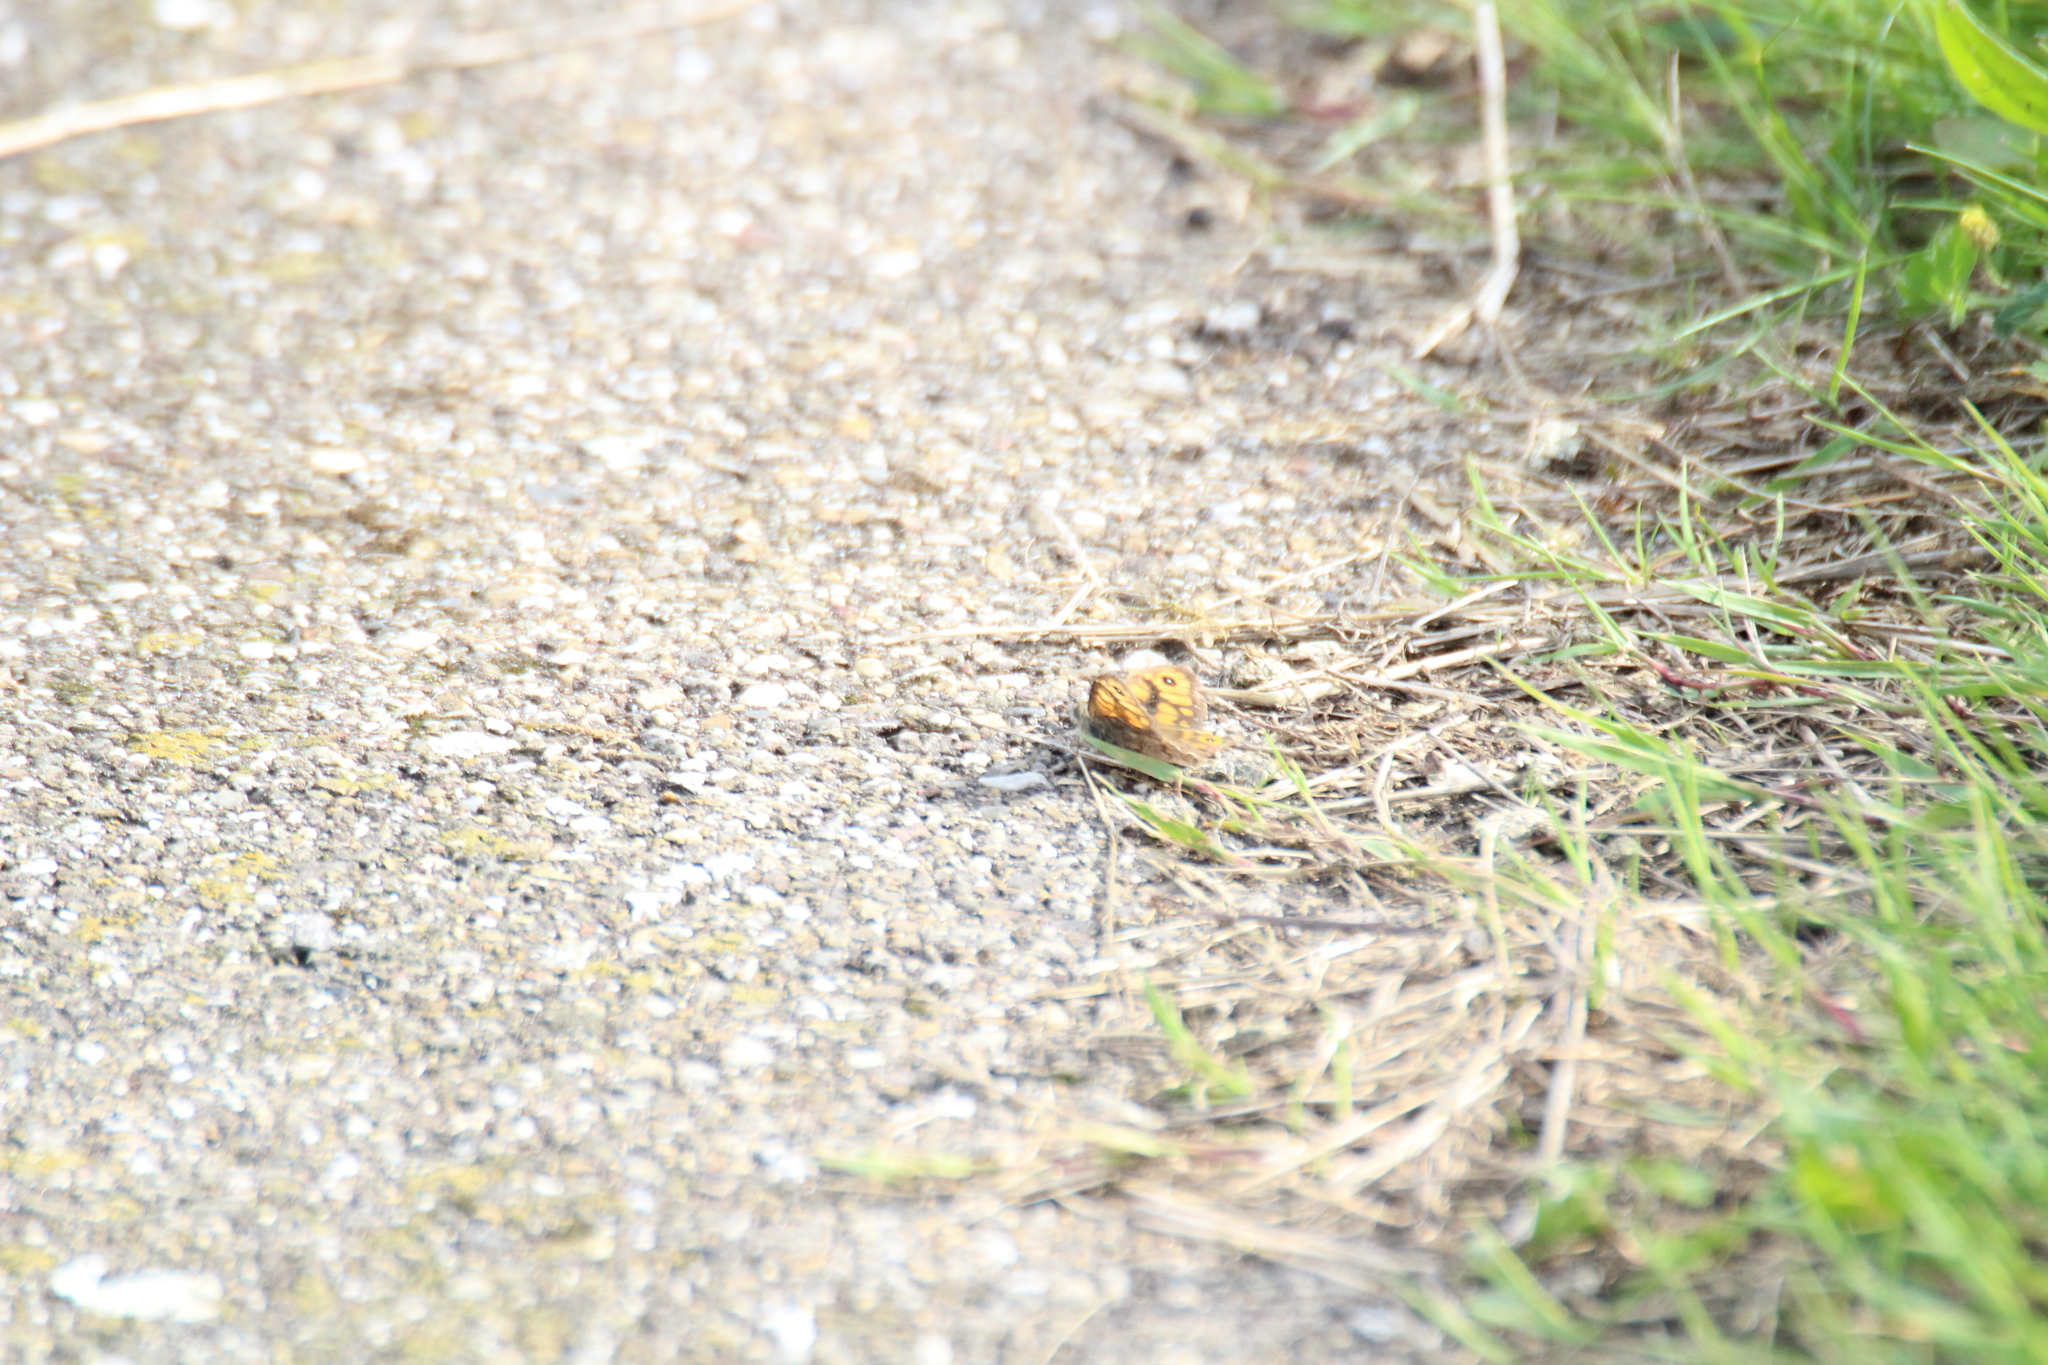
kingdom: Animalia
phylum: Arthropoda
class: Insecta
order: Lepidoptera
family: Nymphalidae
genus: Pararge
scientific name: Pararge Lasiommata megera
